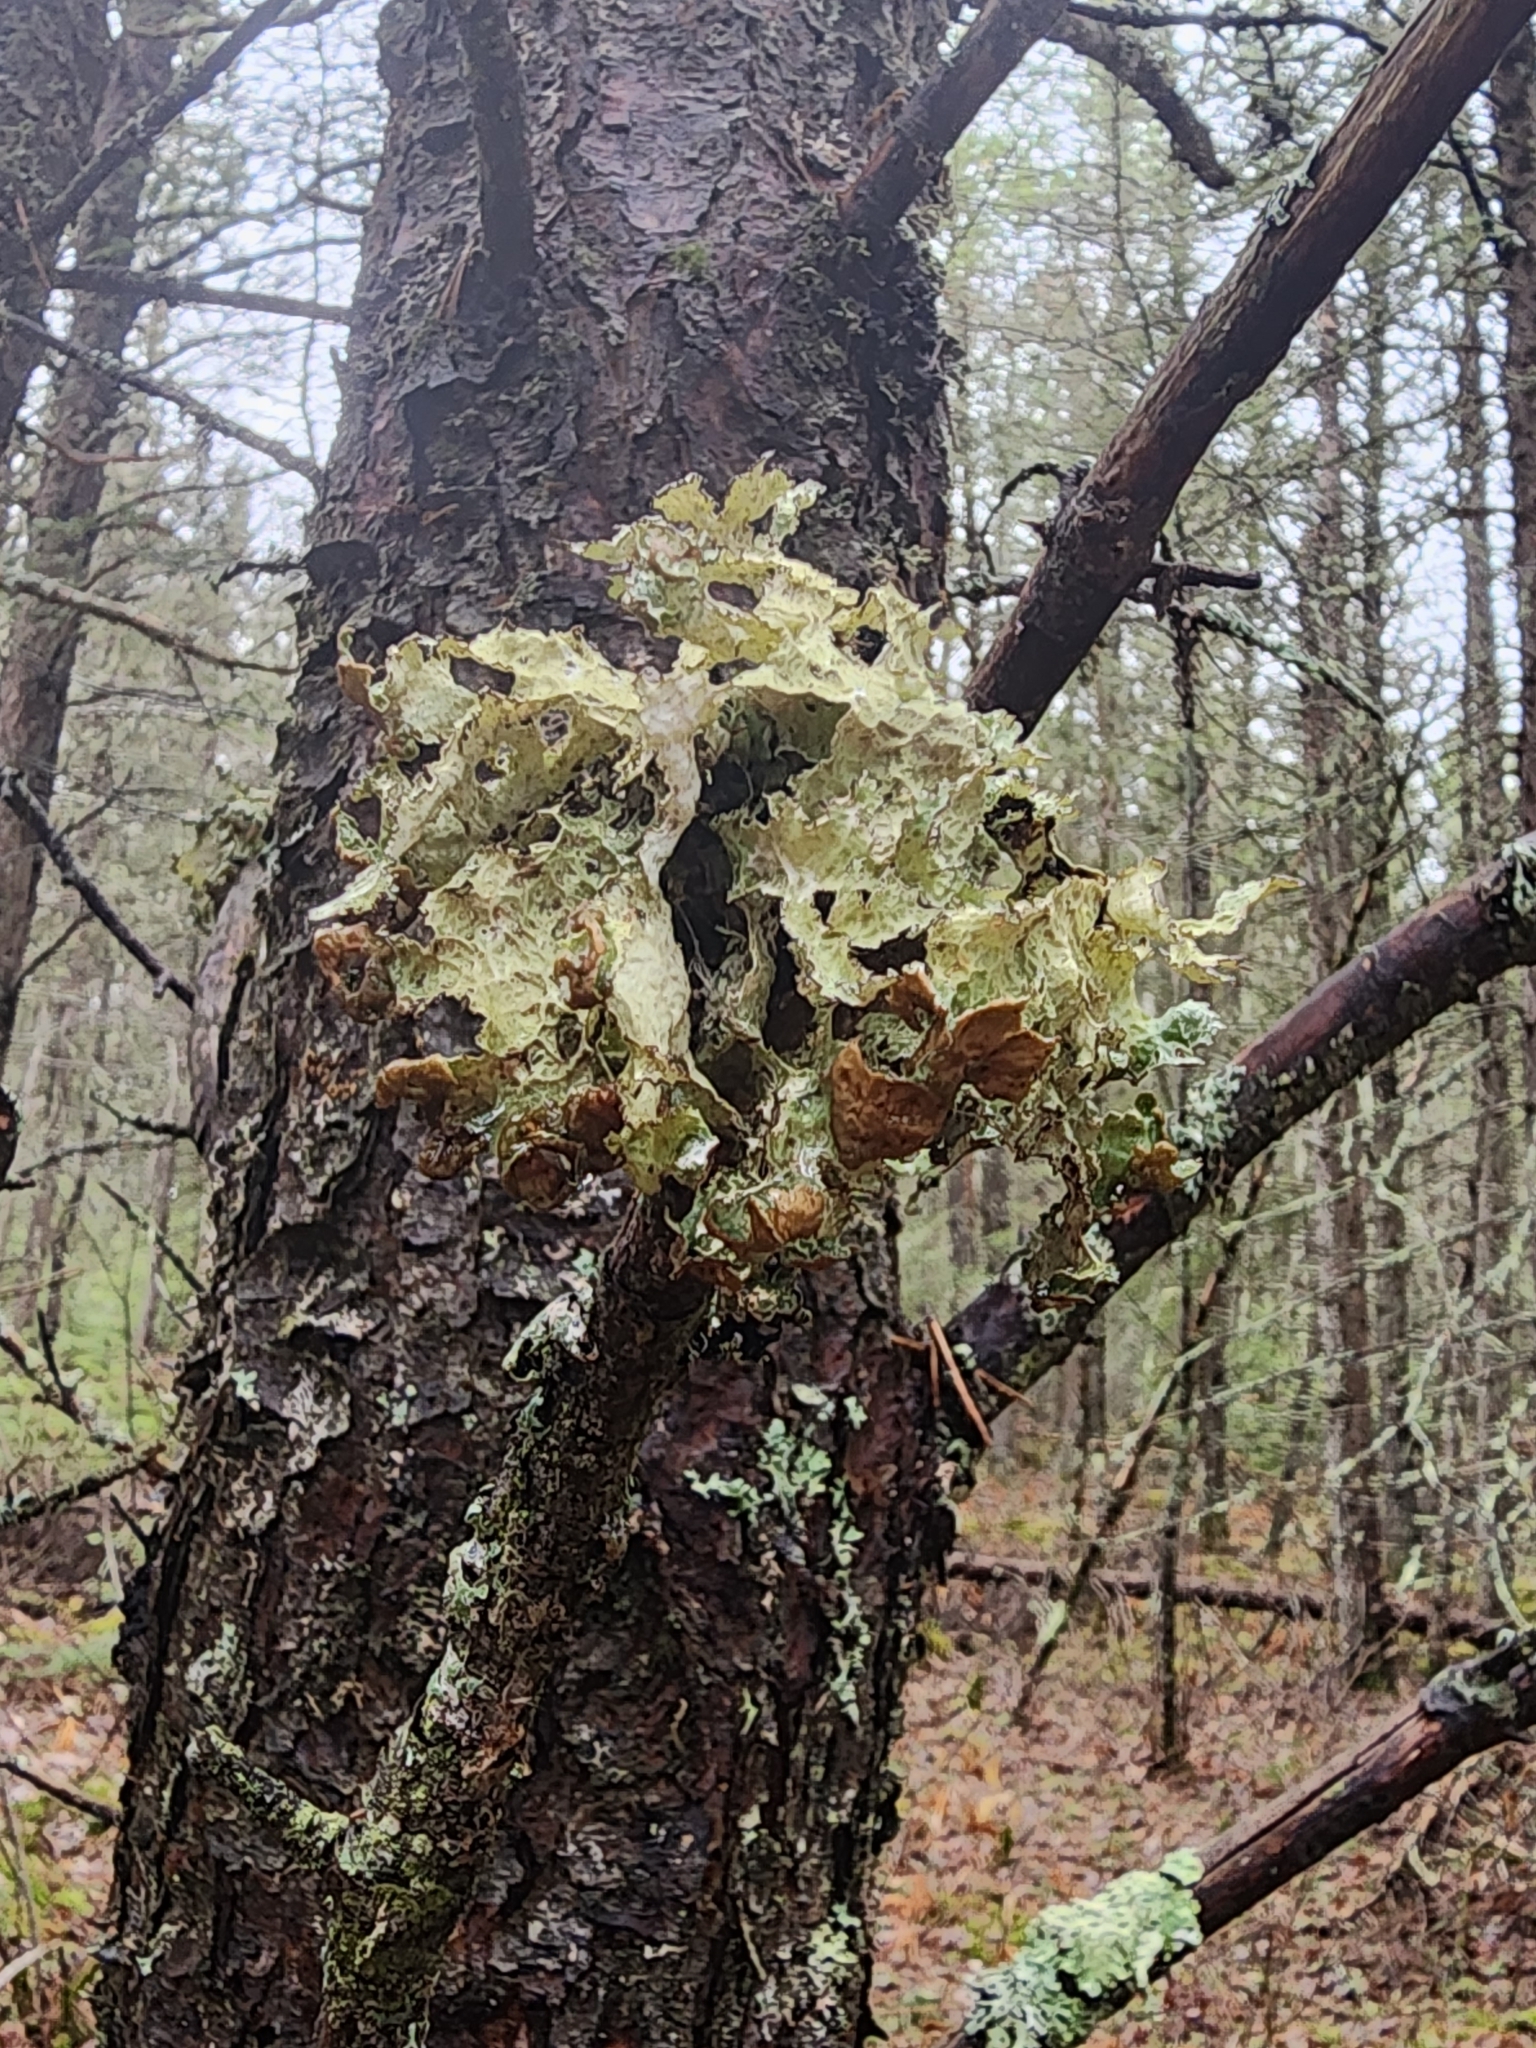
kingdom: Fungi
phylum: Ascomycota
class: Lecanoromycetes
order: Lecanorales
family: Parmeliaceae
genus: Platismatia
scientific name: Platismatia tuckermanii
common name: Crumpled rag lichen
